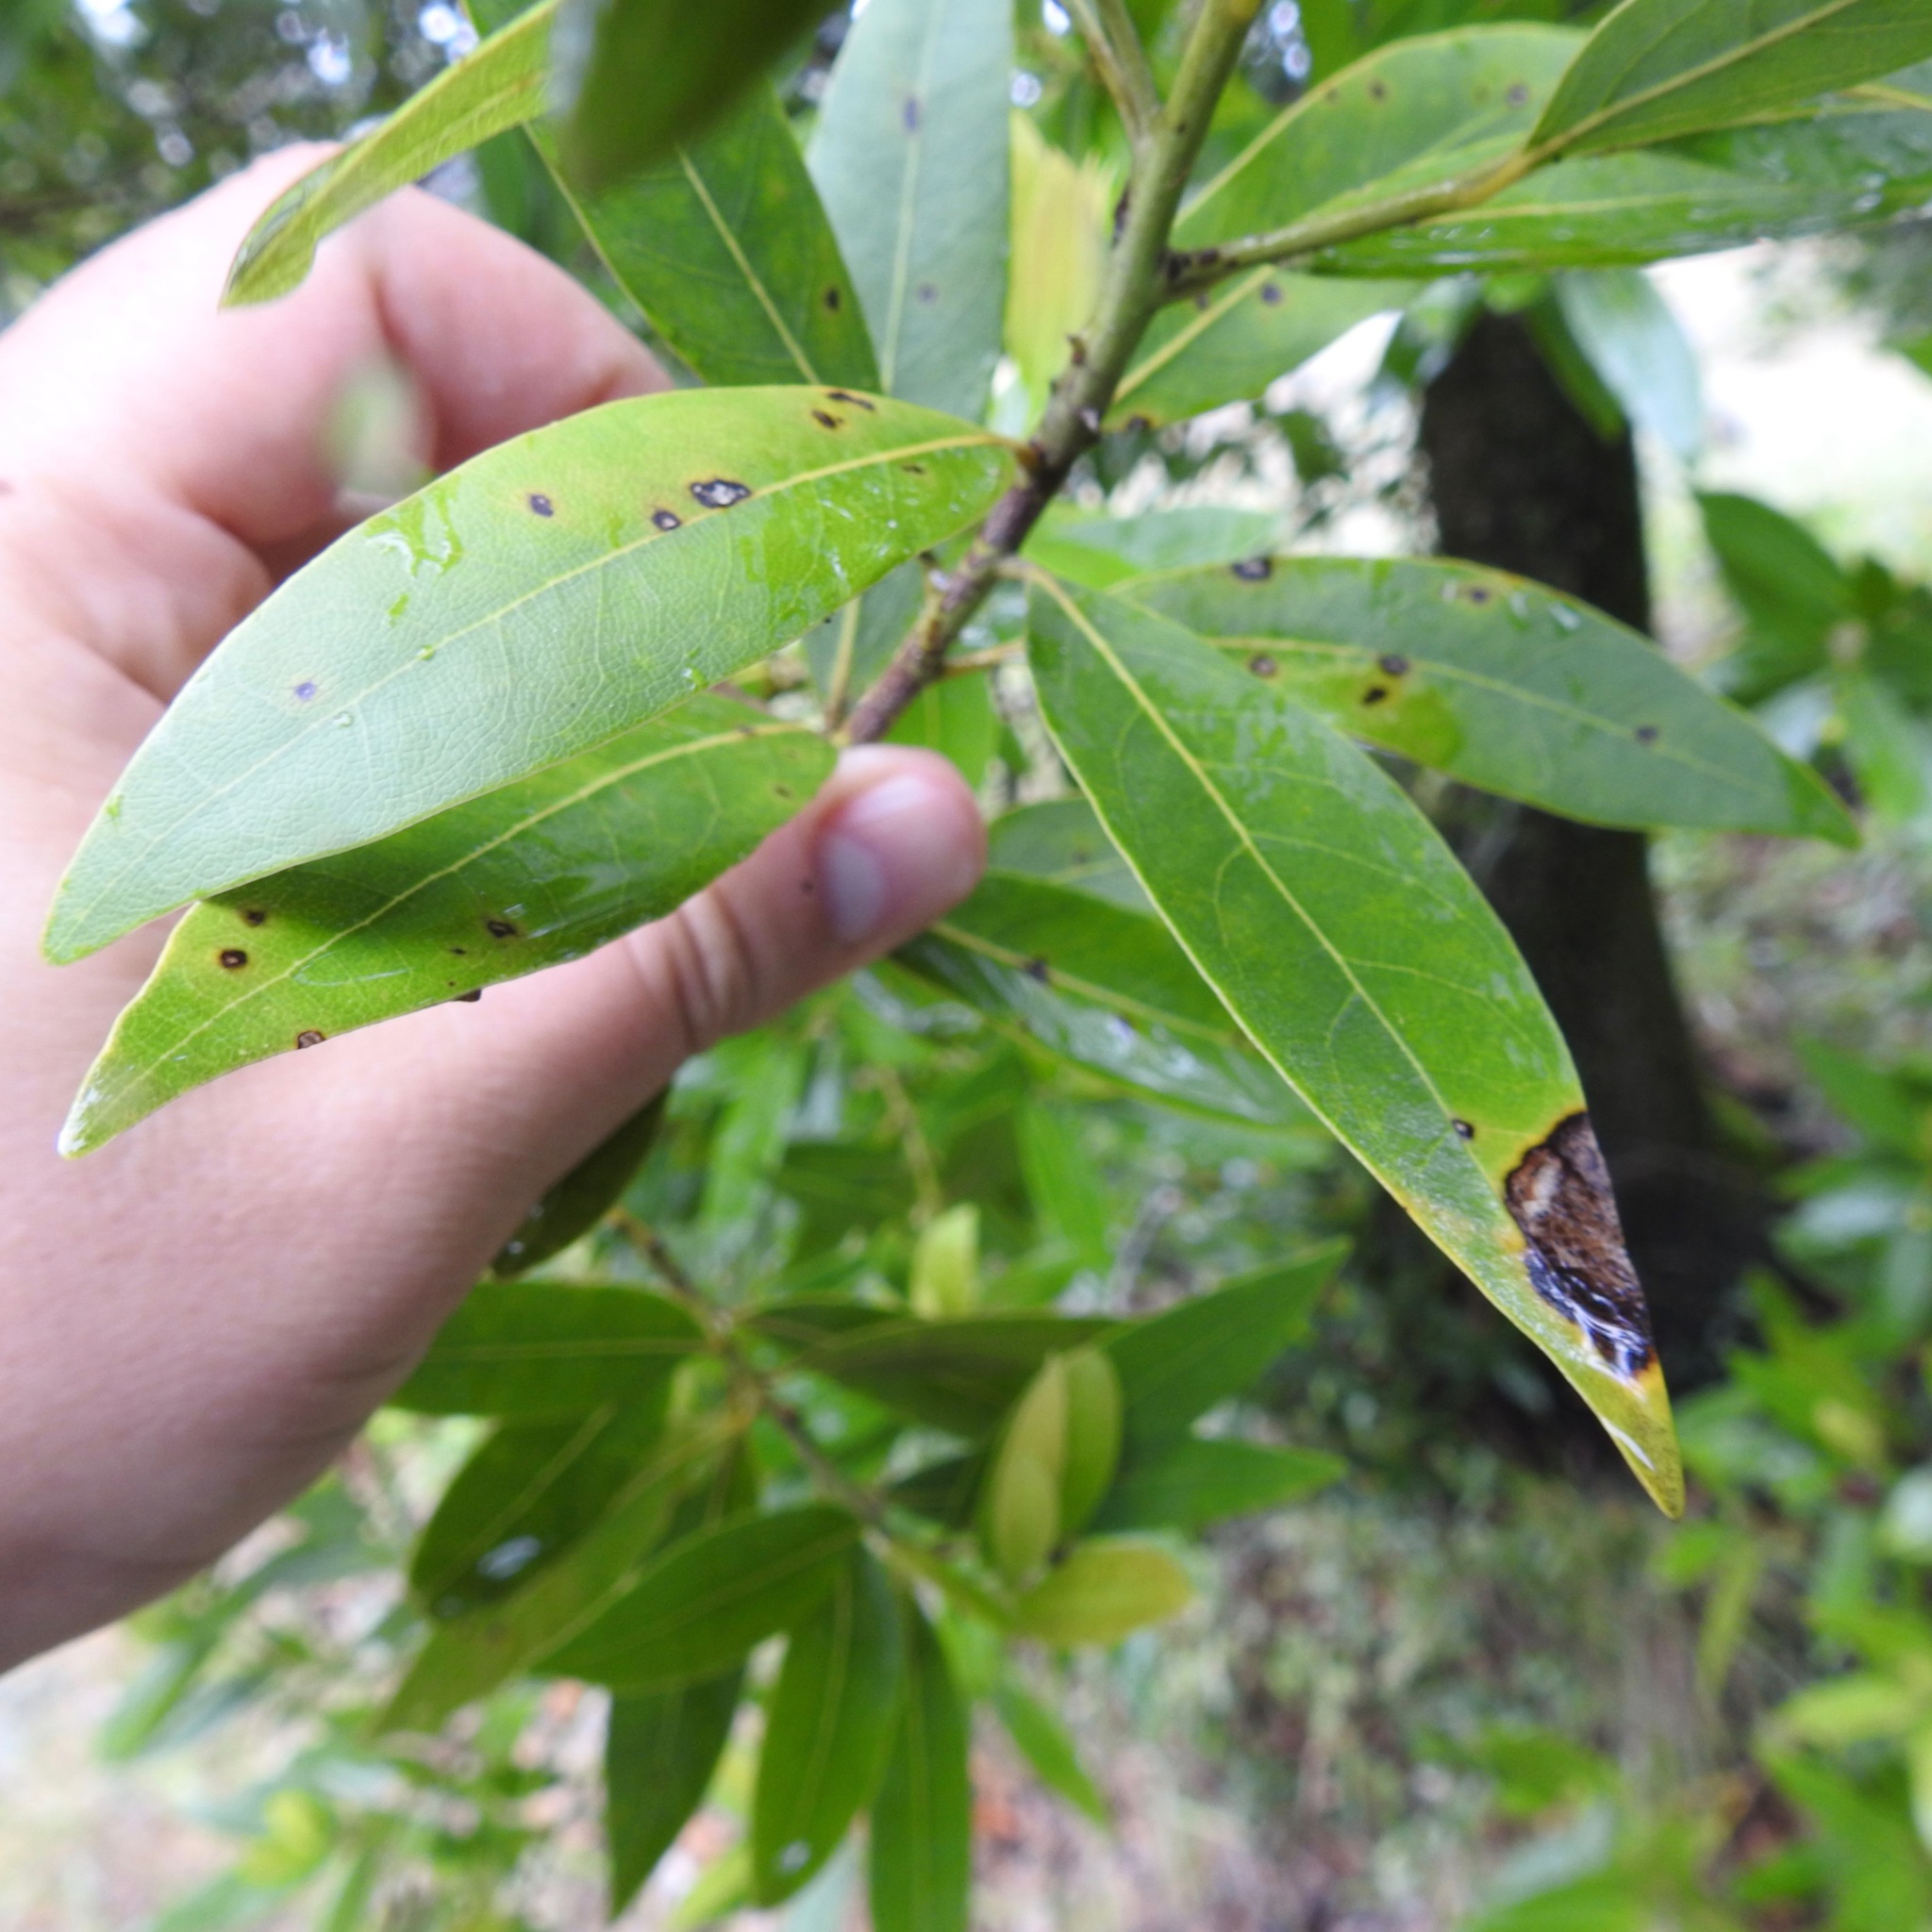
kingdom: Chromista
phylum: Oomycota
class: Peronosporea
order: Peronosporales
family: Peronosporaceae
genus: Phytophthora
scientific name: Phytophthora ramorum
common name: Sudden oak death
